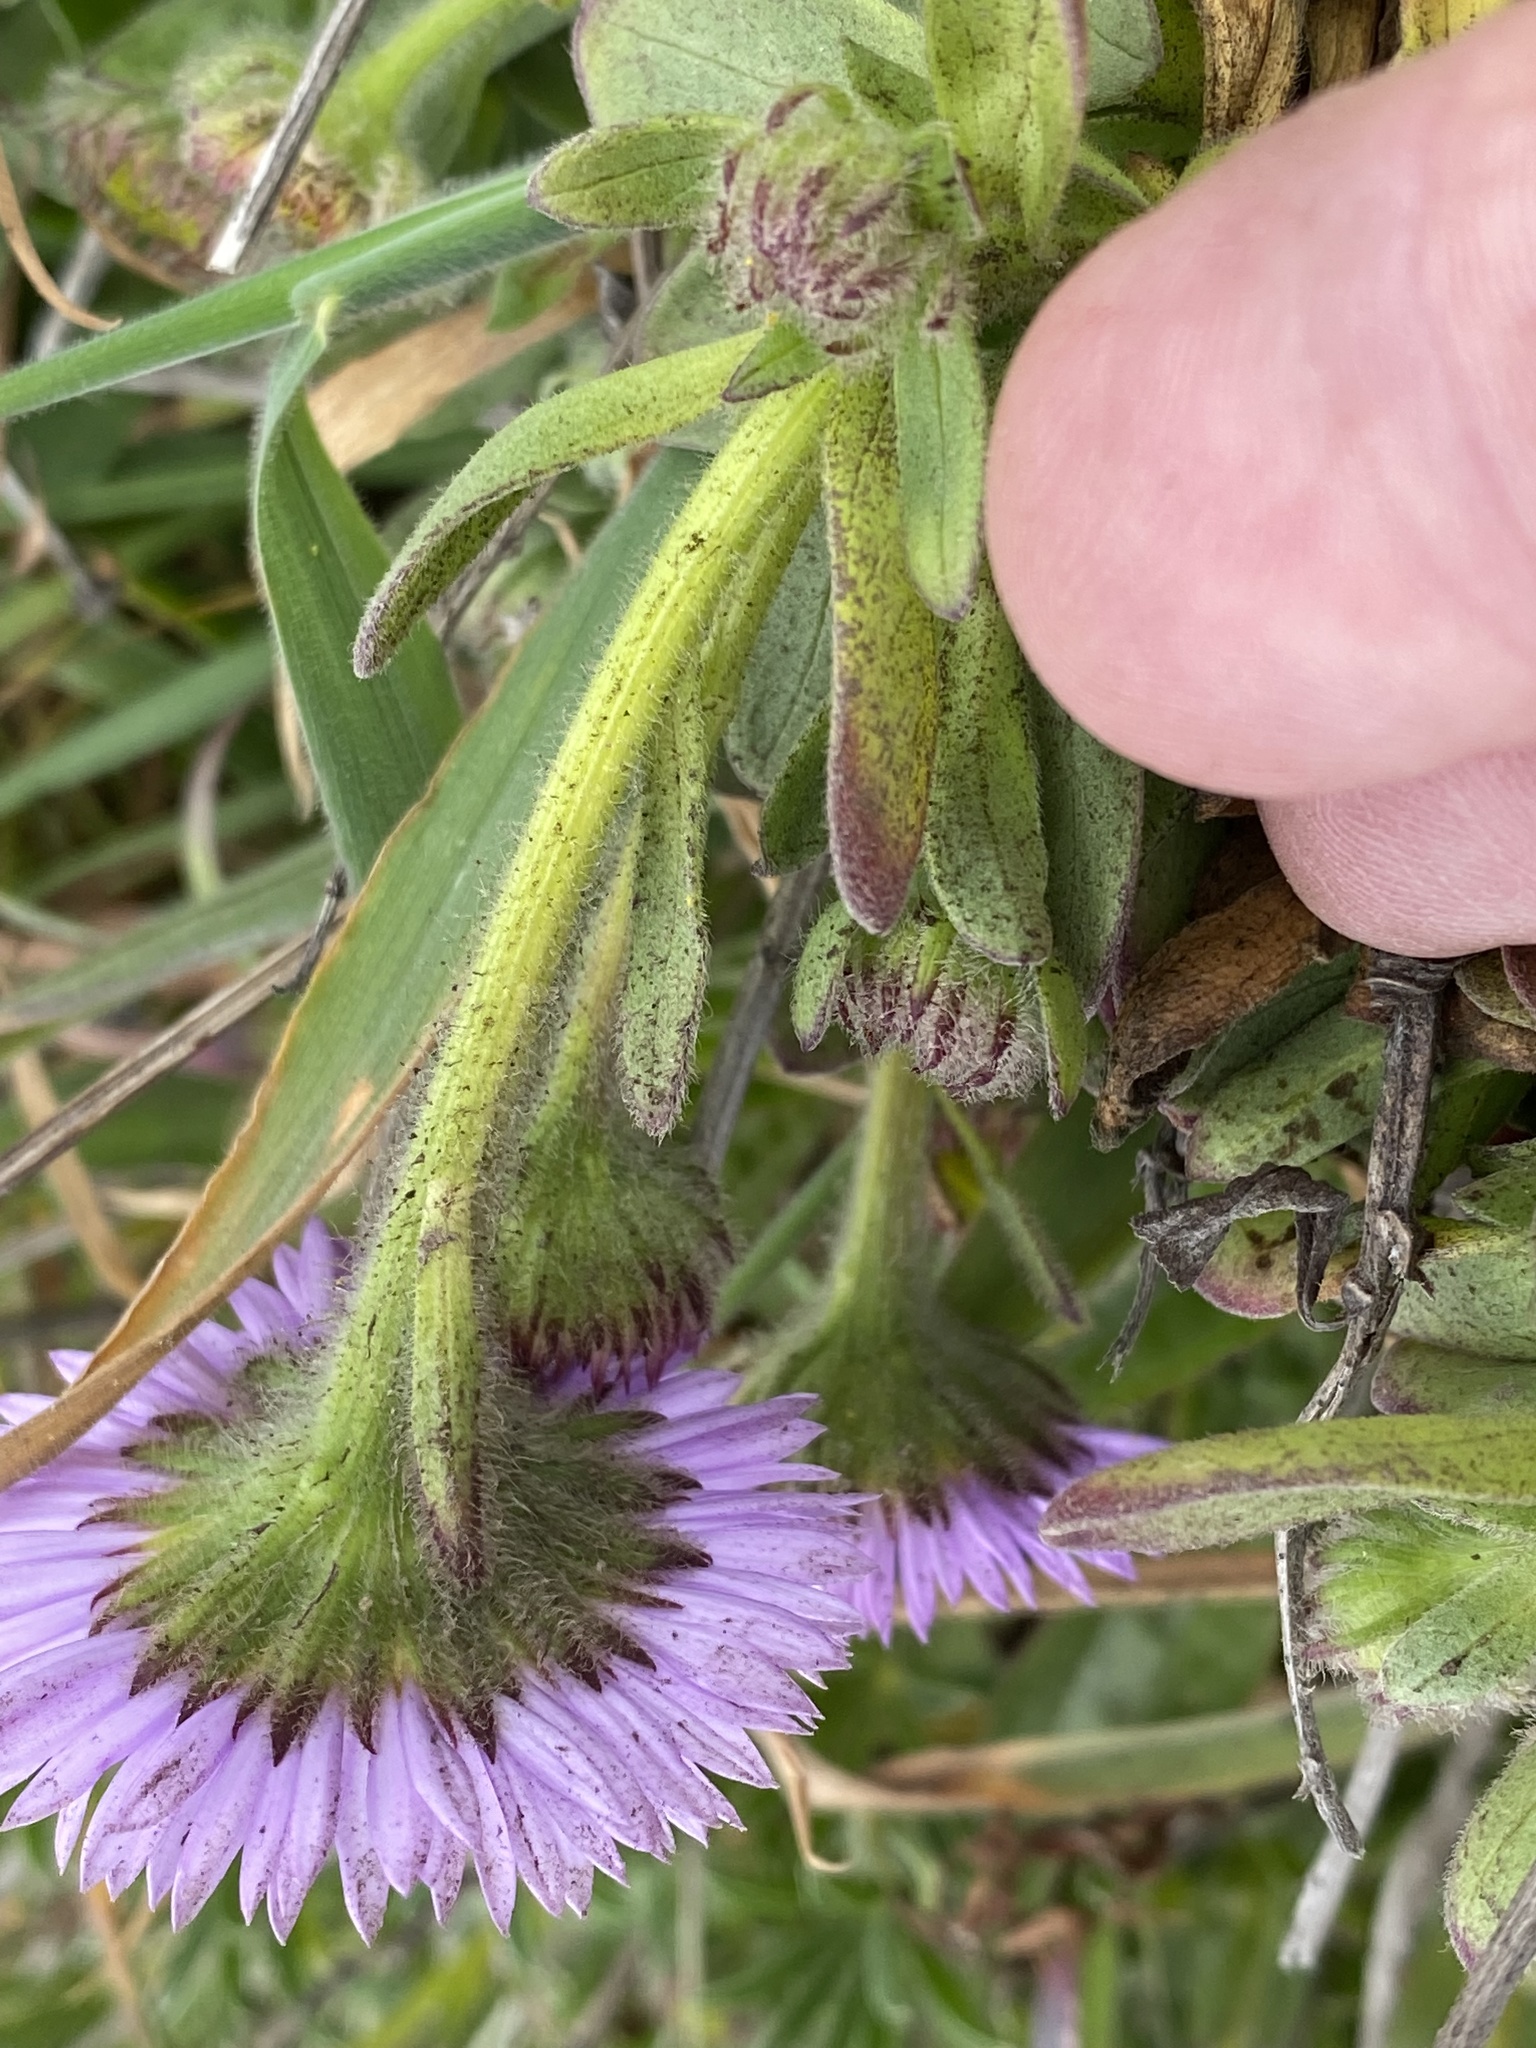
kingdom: Plantae
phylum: Tracheophyta
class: Magnoliopsida
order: Asterales
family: Asteraceae
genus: Erigeron
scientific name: Erigeron glaucus
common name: Seaside daisy
